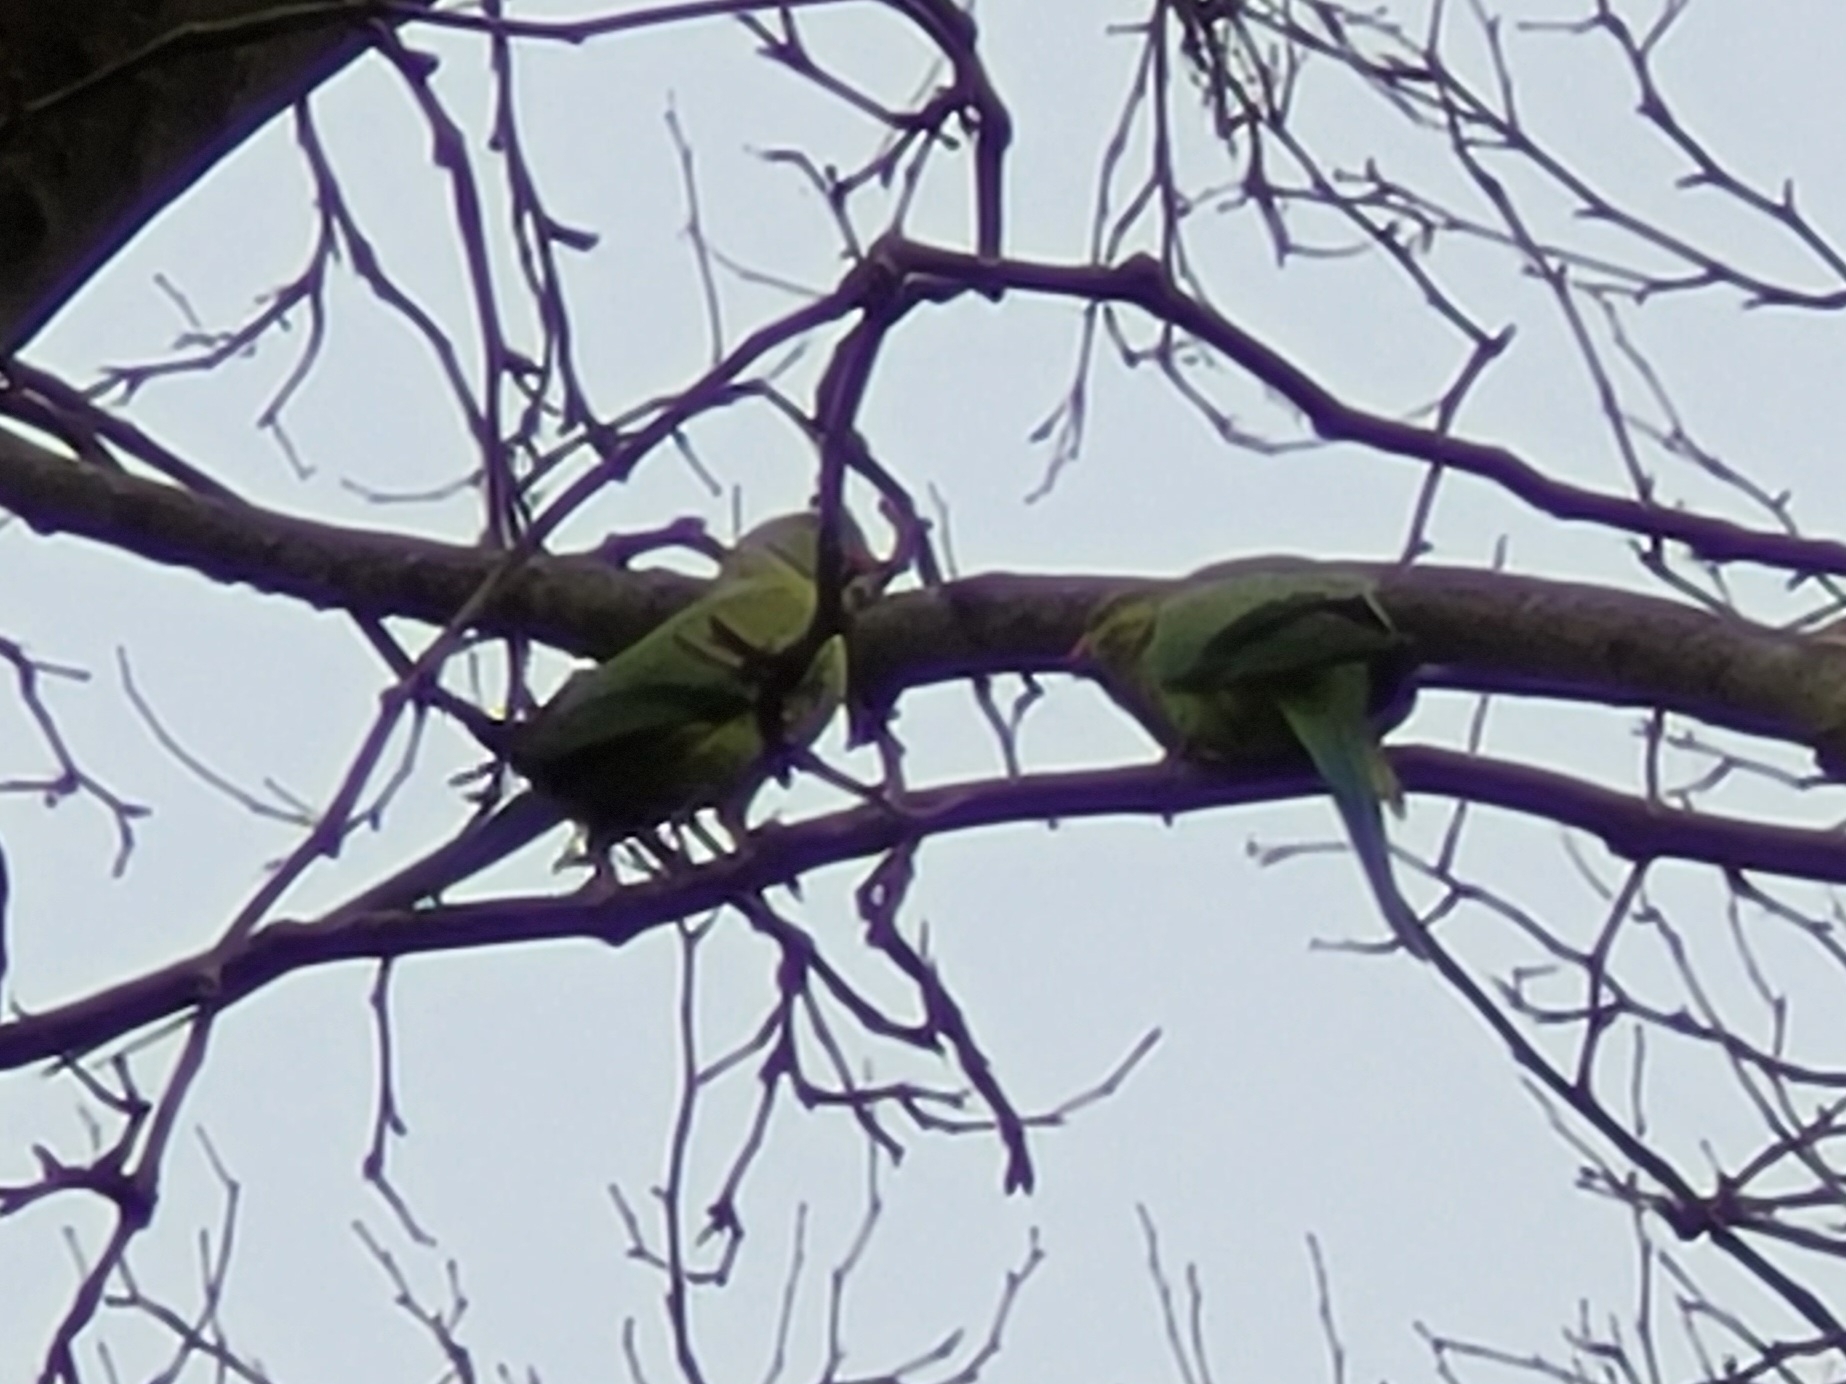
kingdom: Animalia
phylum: Chordata
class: Aves
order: Psittaciformes
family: Psittacidae
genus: Psittacula
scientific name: Psittacula krameri
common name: Rose-ringed parakeet
